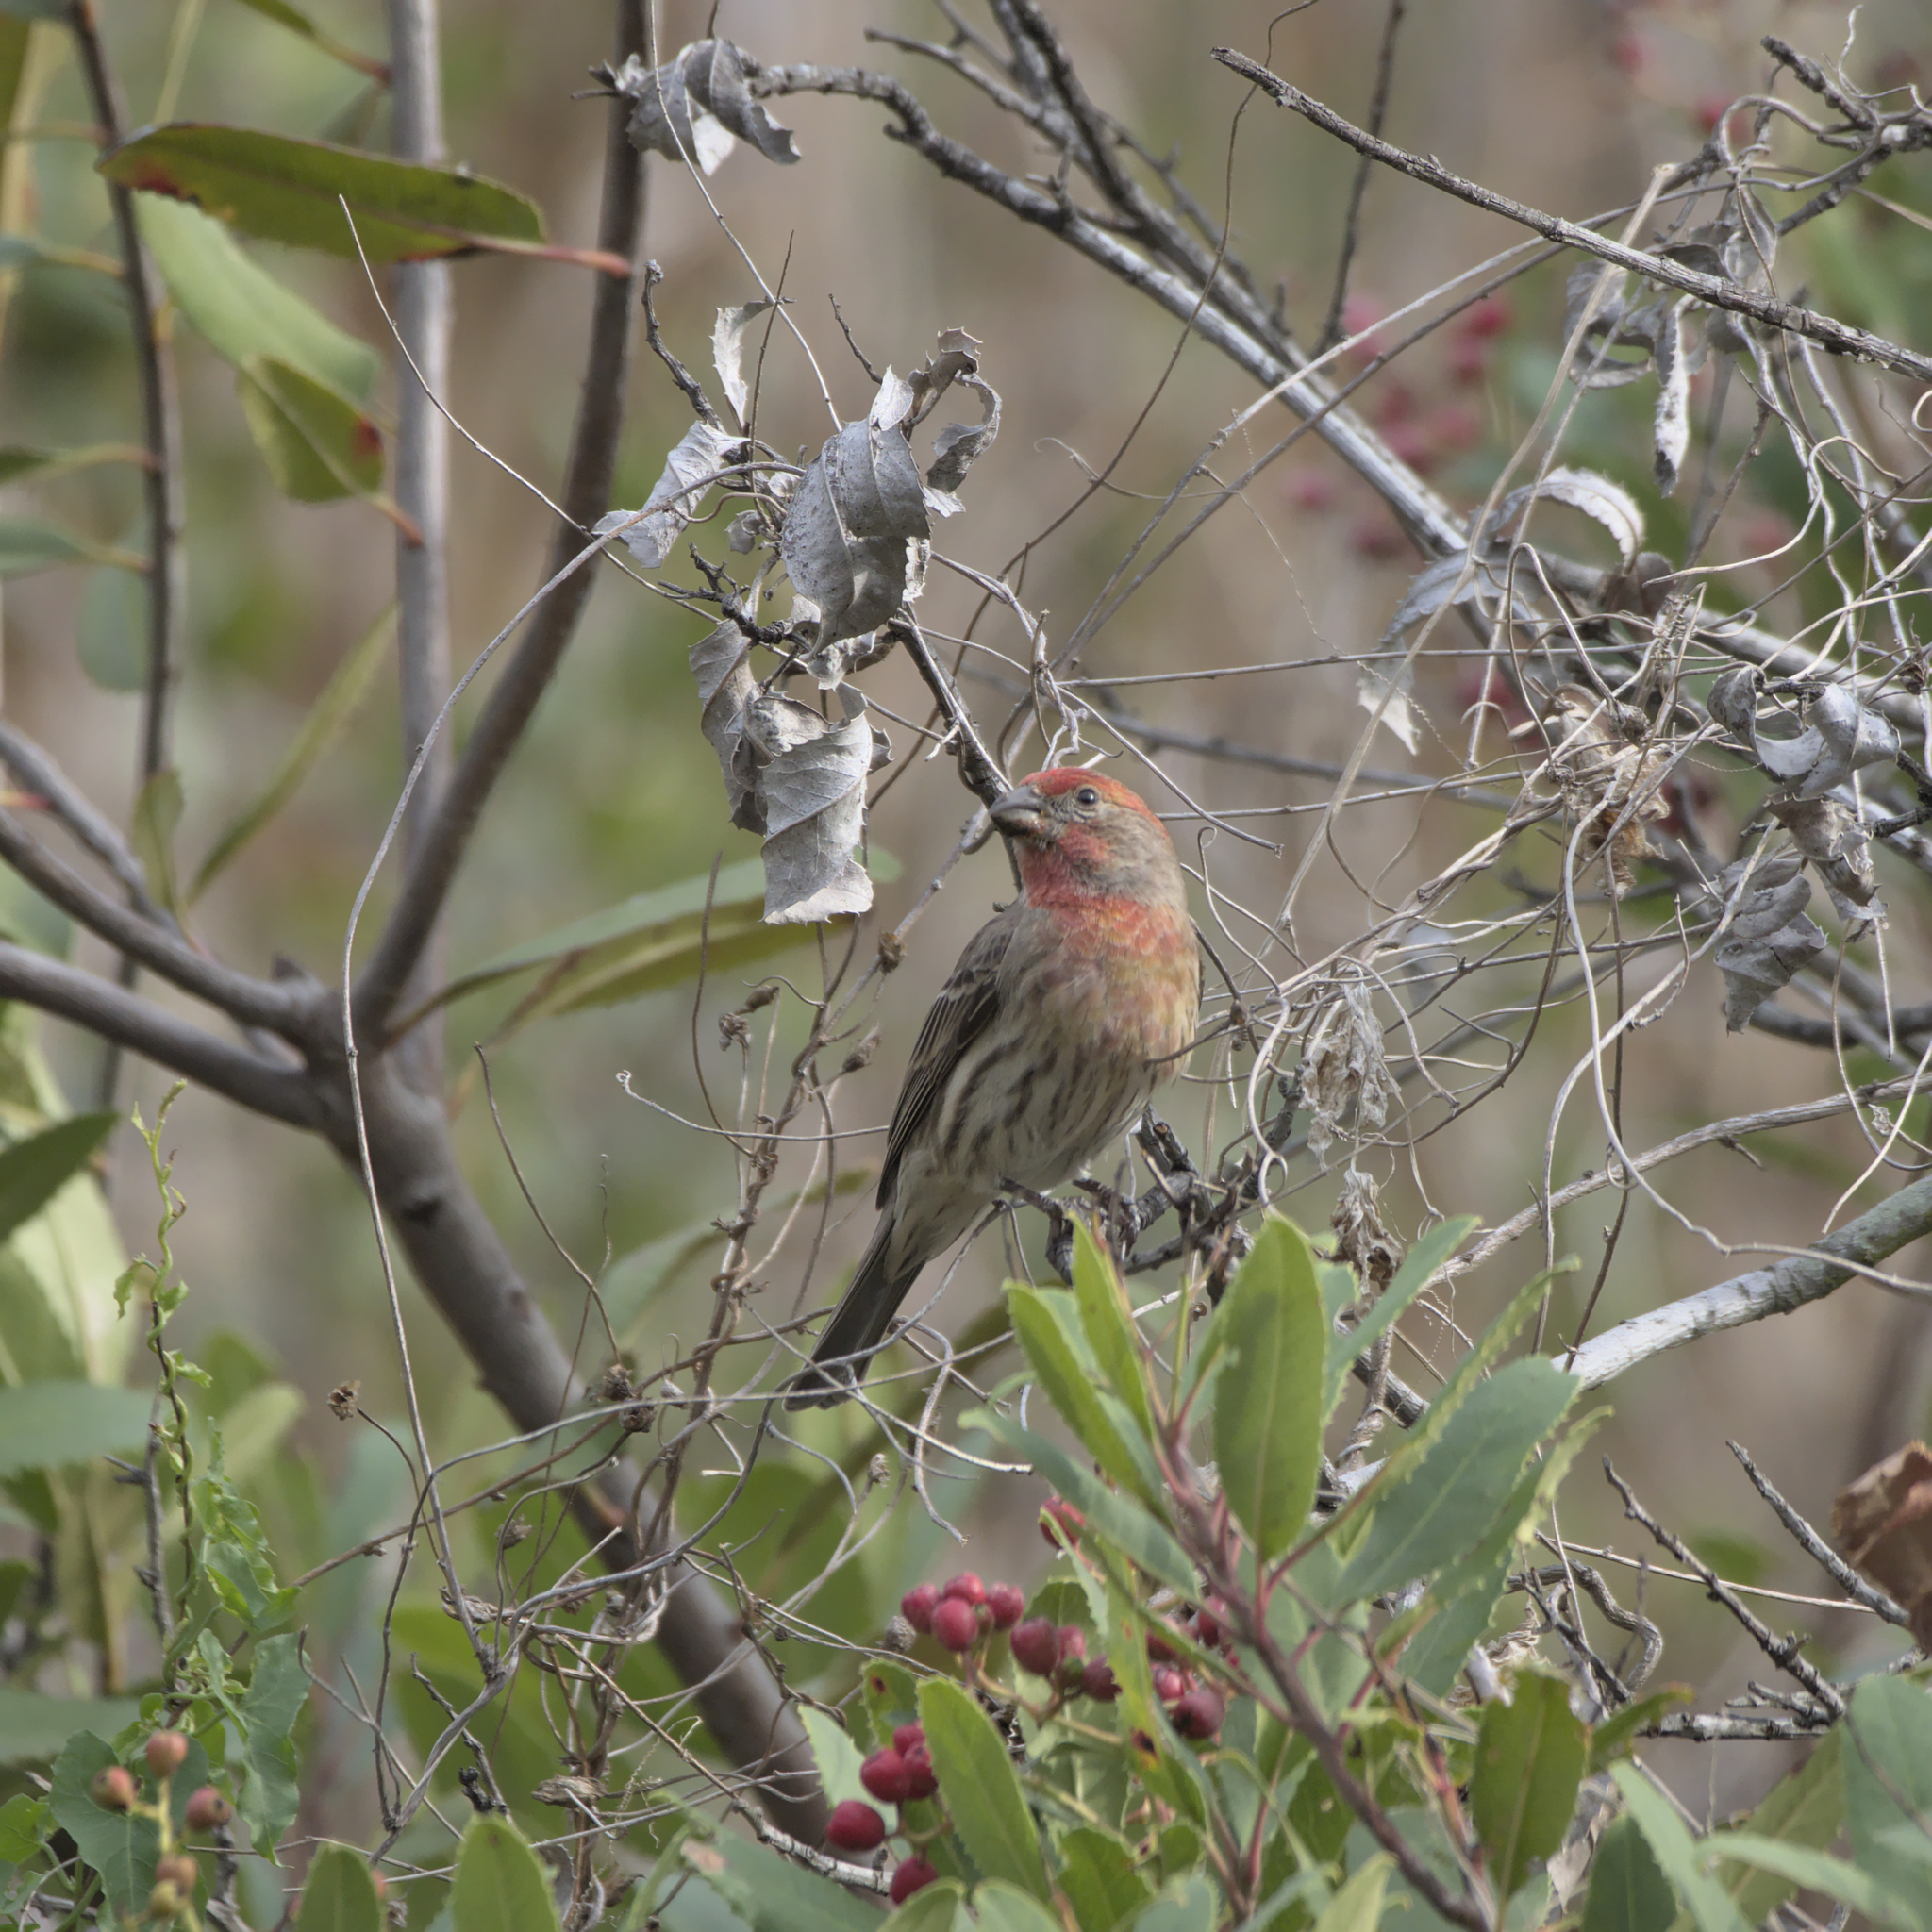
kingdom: Animalia
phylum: Chordata
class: Aves
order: Passeriformes
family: Fringillidae
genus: Haemorhous
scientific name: Haemorhous mexicanus
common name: House finch
